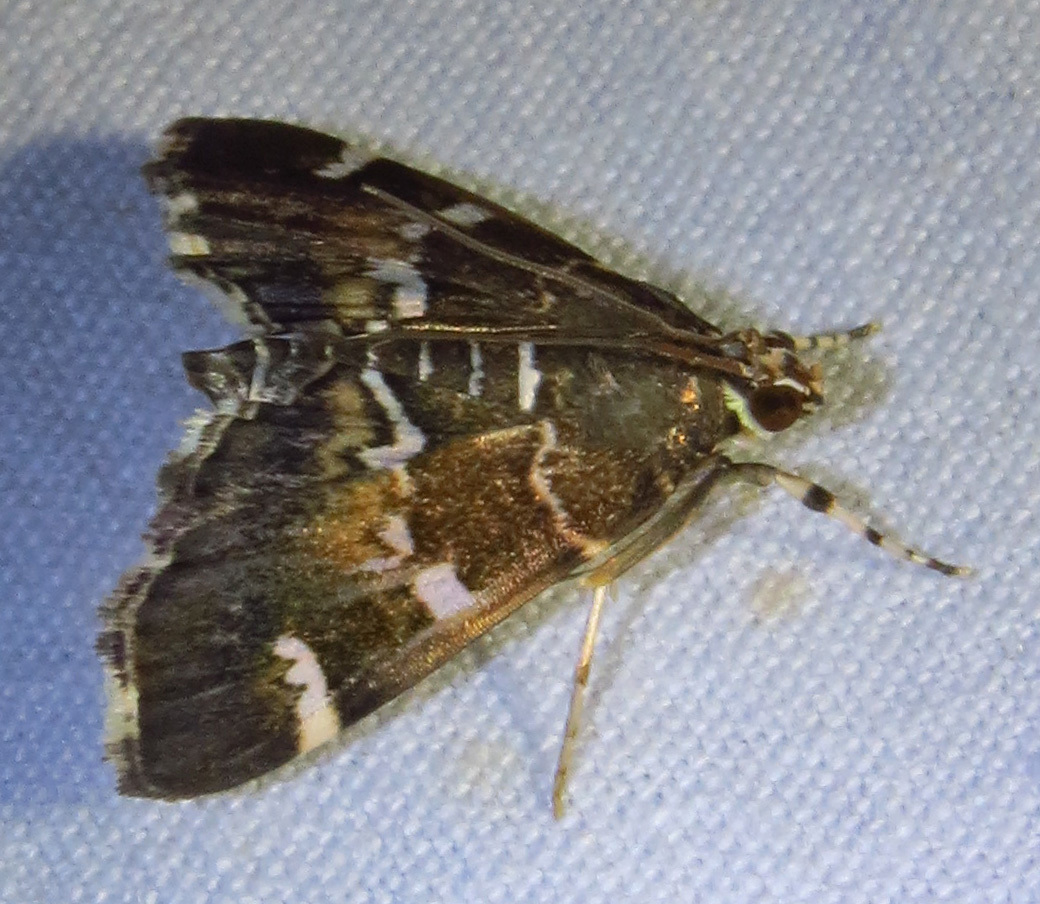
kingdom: Animalia
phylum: Arthropoda
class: Insecta
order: Lepidoptera
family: Crambidae
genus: Hymenia
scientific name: Hymenia perspectalis
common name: Spotted beet webworm
